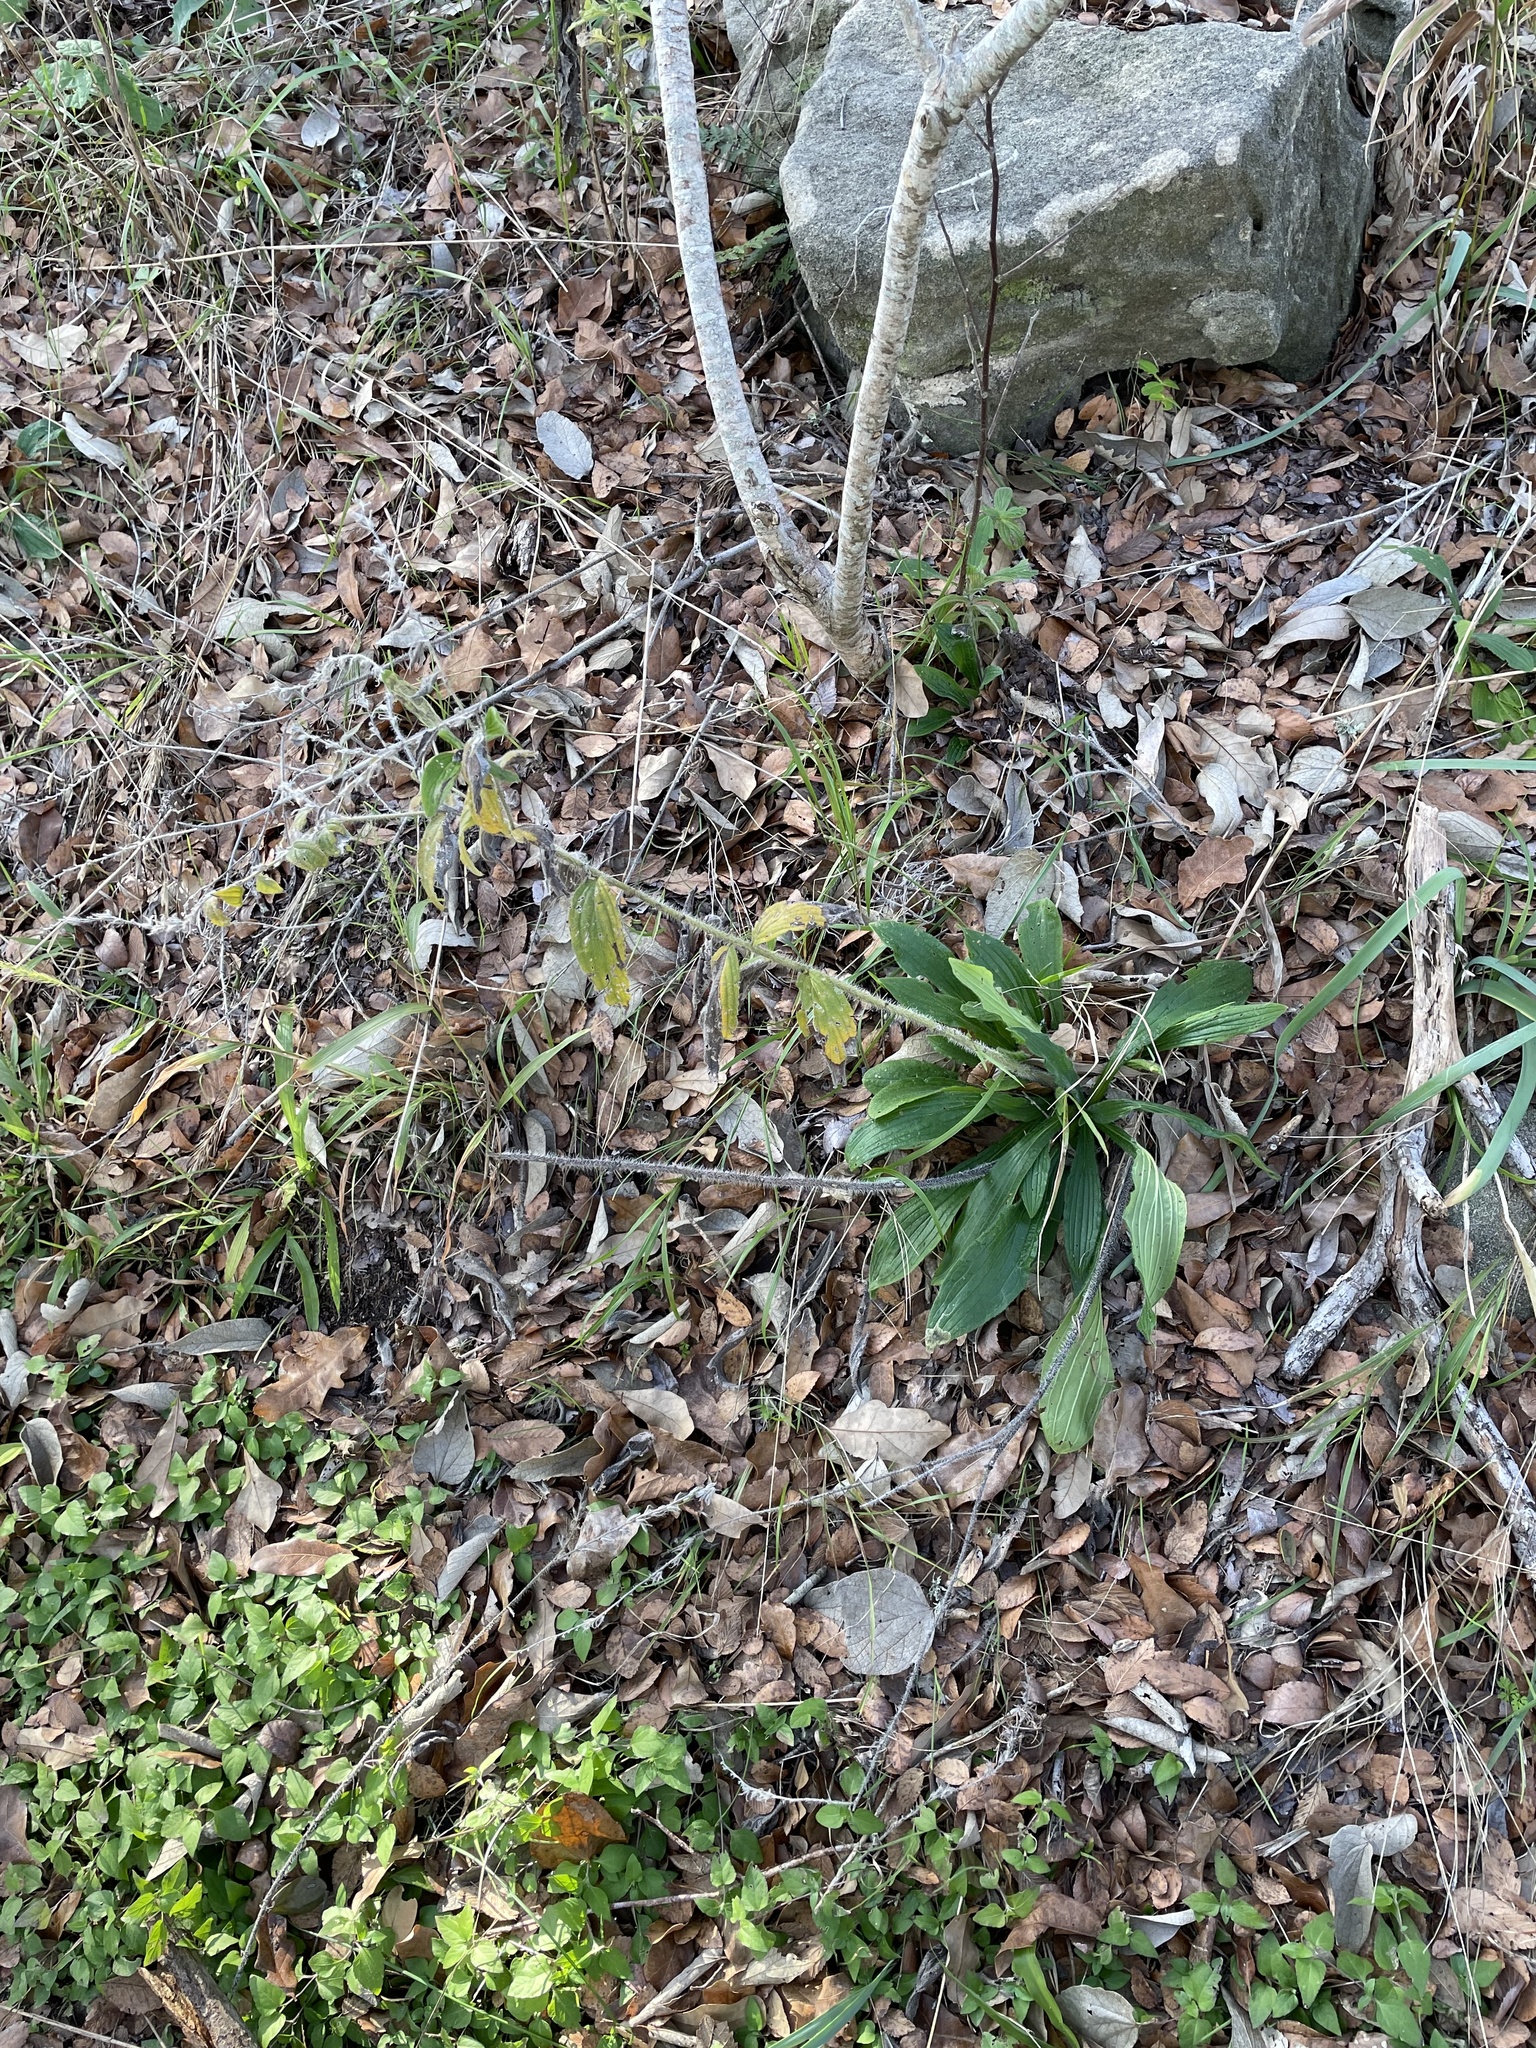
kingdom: Plantae
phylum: Tracheophyta
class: Magnoliopsida
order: Boraginales
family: Boraginaceae
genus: Lithospermum
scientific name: Lithospermum caroliniense
